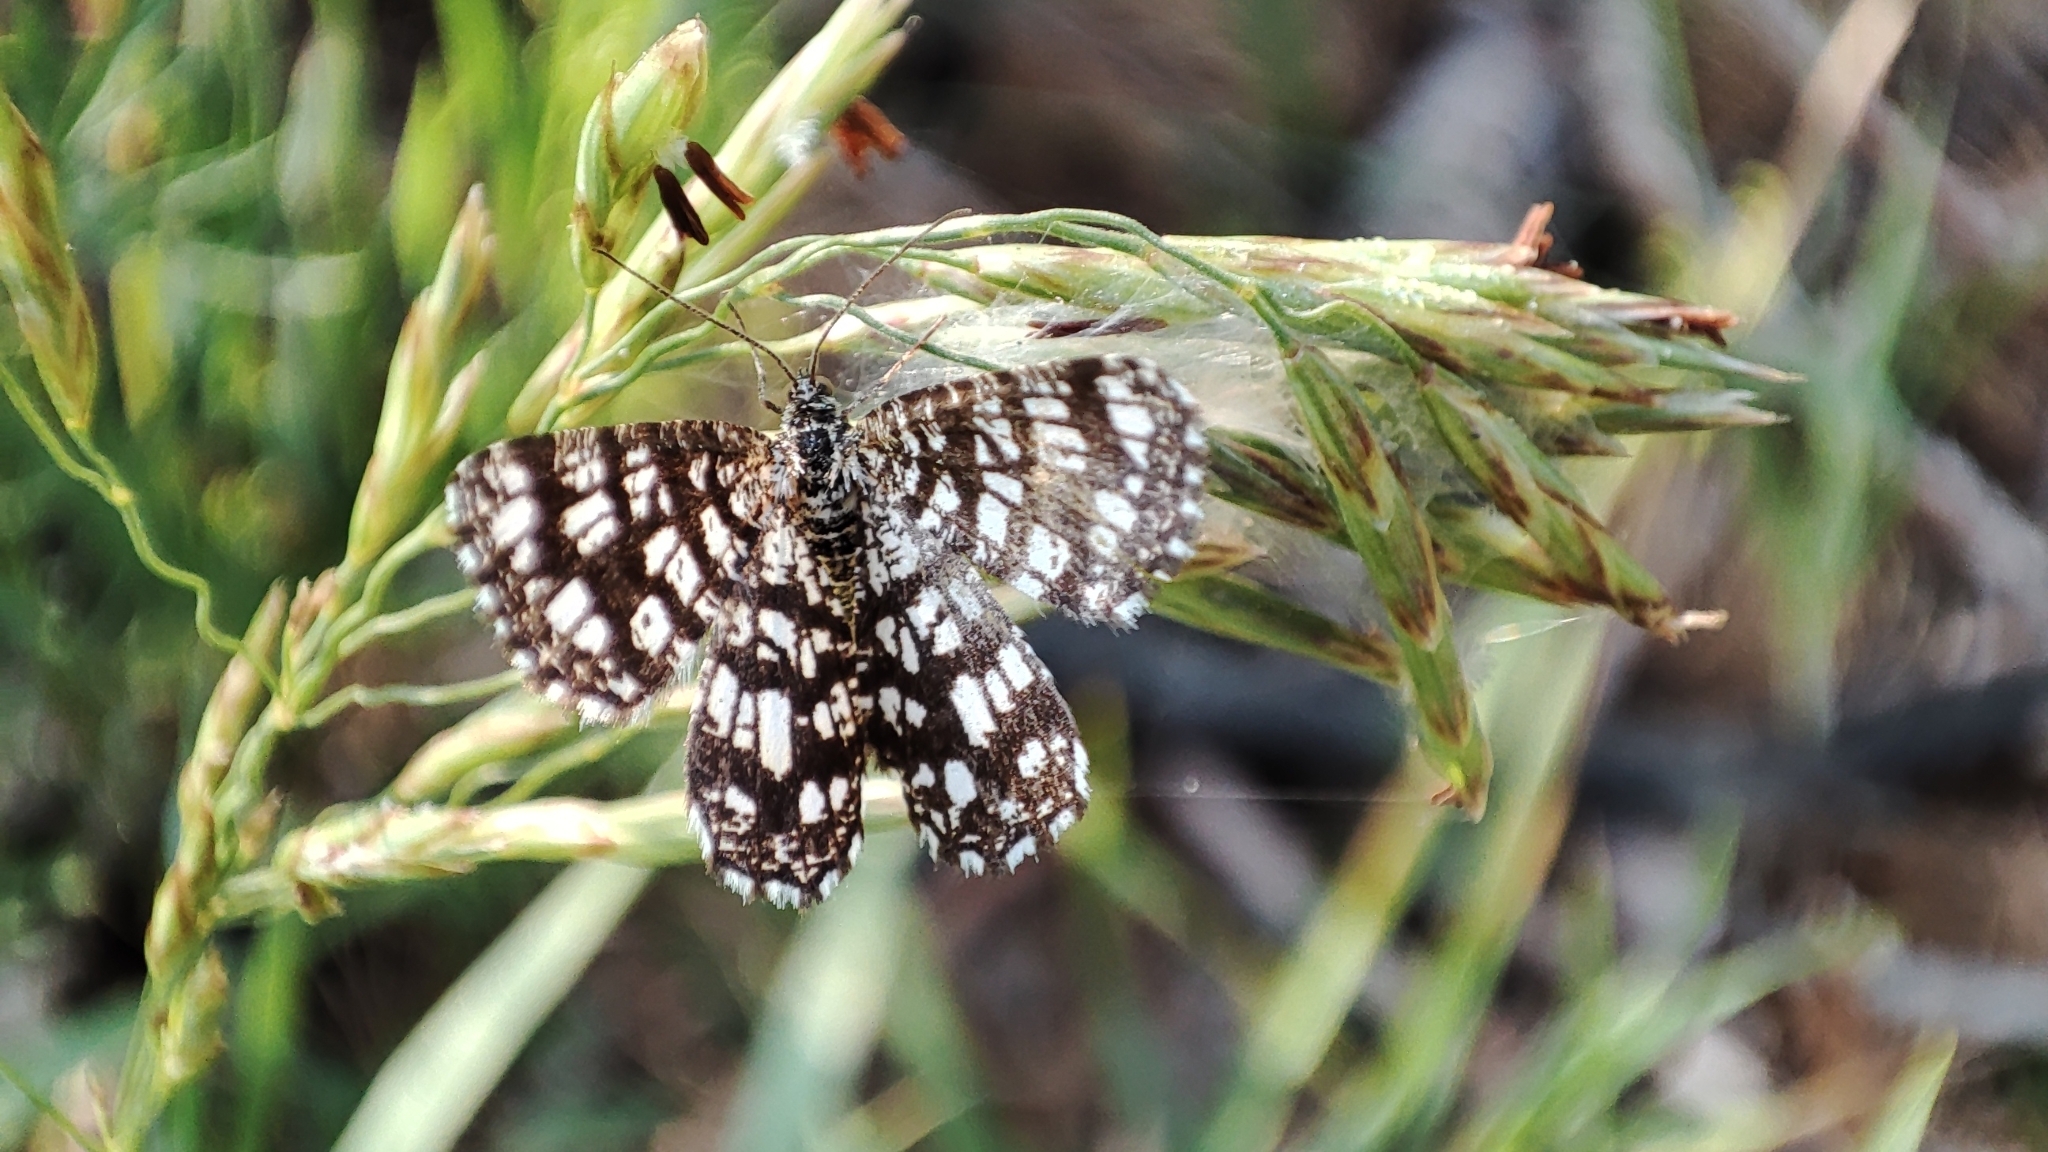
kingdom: Animalia
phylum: Arthropoda
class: Insecta
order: Lepidoptera
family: Geometridae
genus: Chiasmia
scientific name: Chiasmia clathrata
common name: Latticed heath
